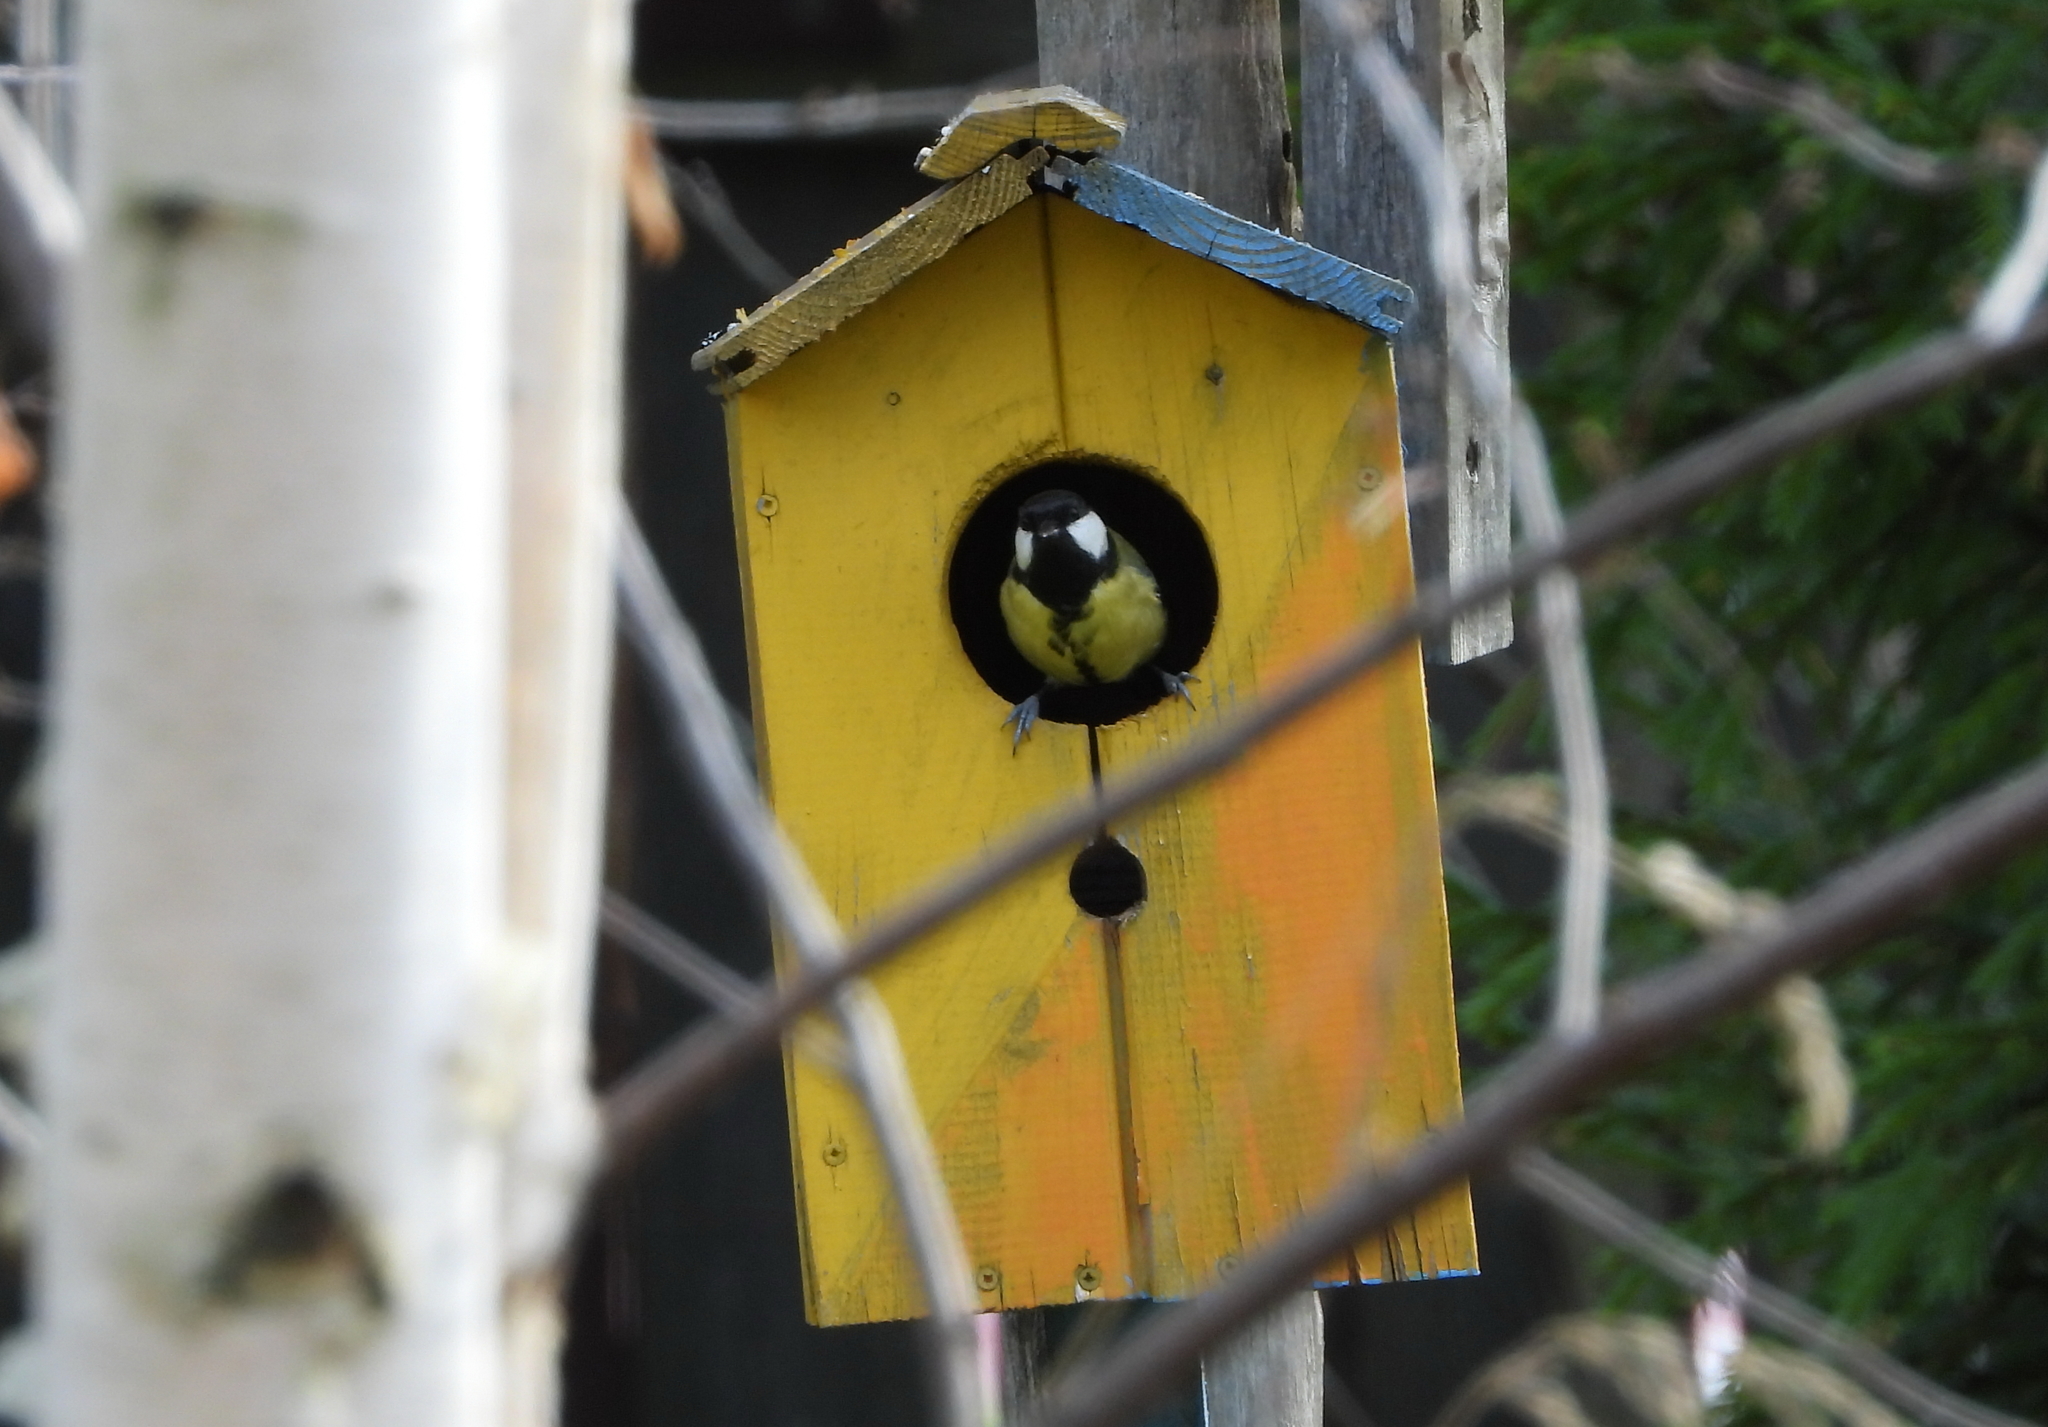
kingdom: Animalia
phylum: Chordata
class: Aves
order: Passeriformes
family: Paridae
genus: Parus
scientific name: Parus major
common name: Great tit
